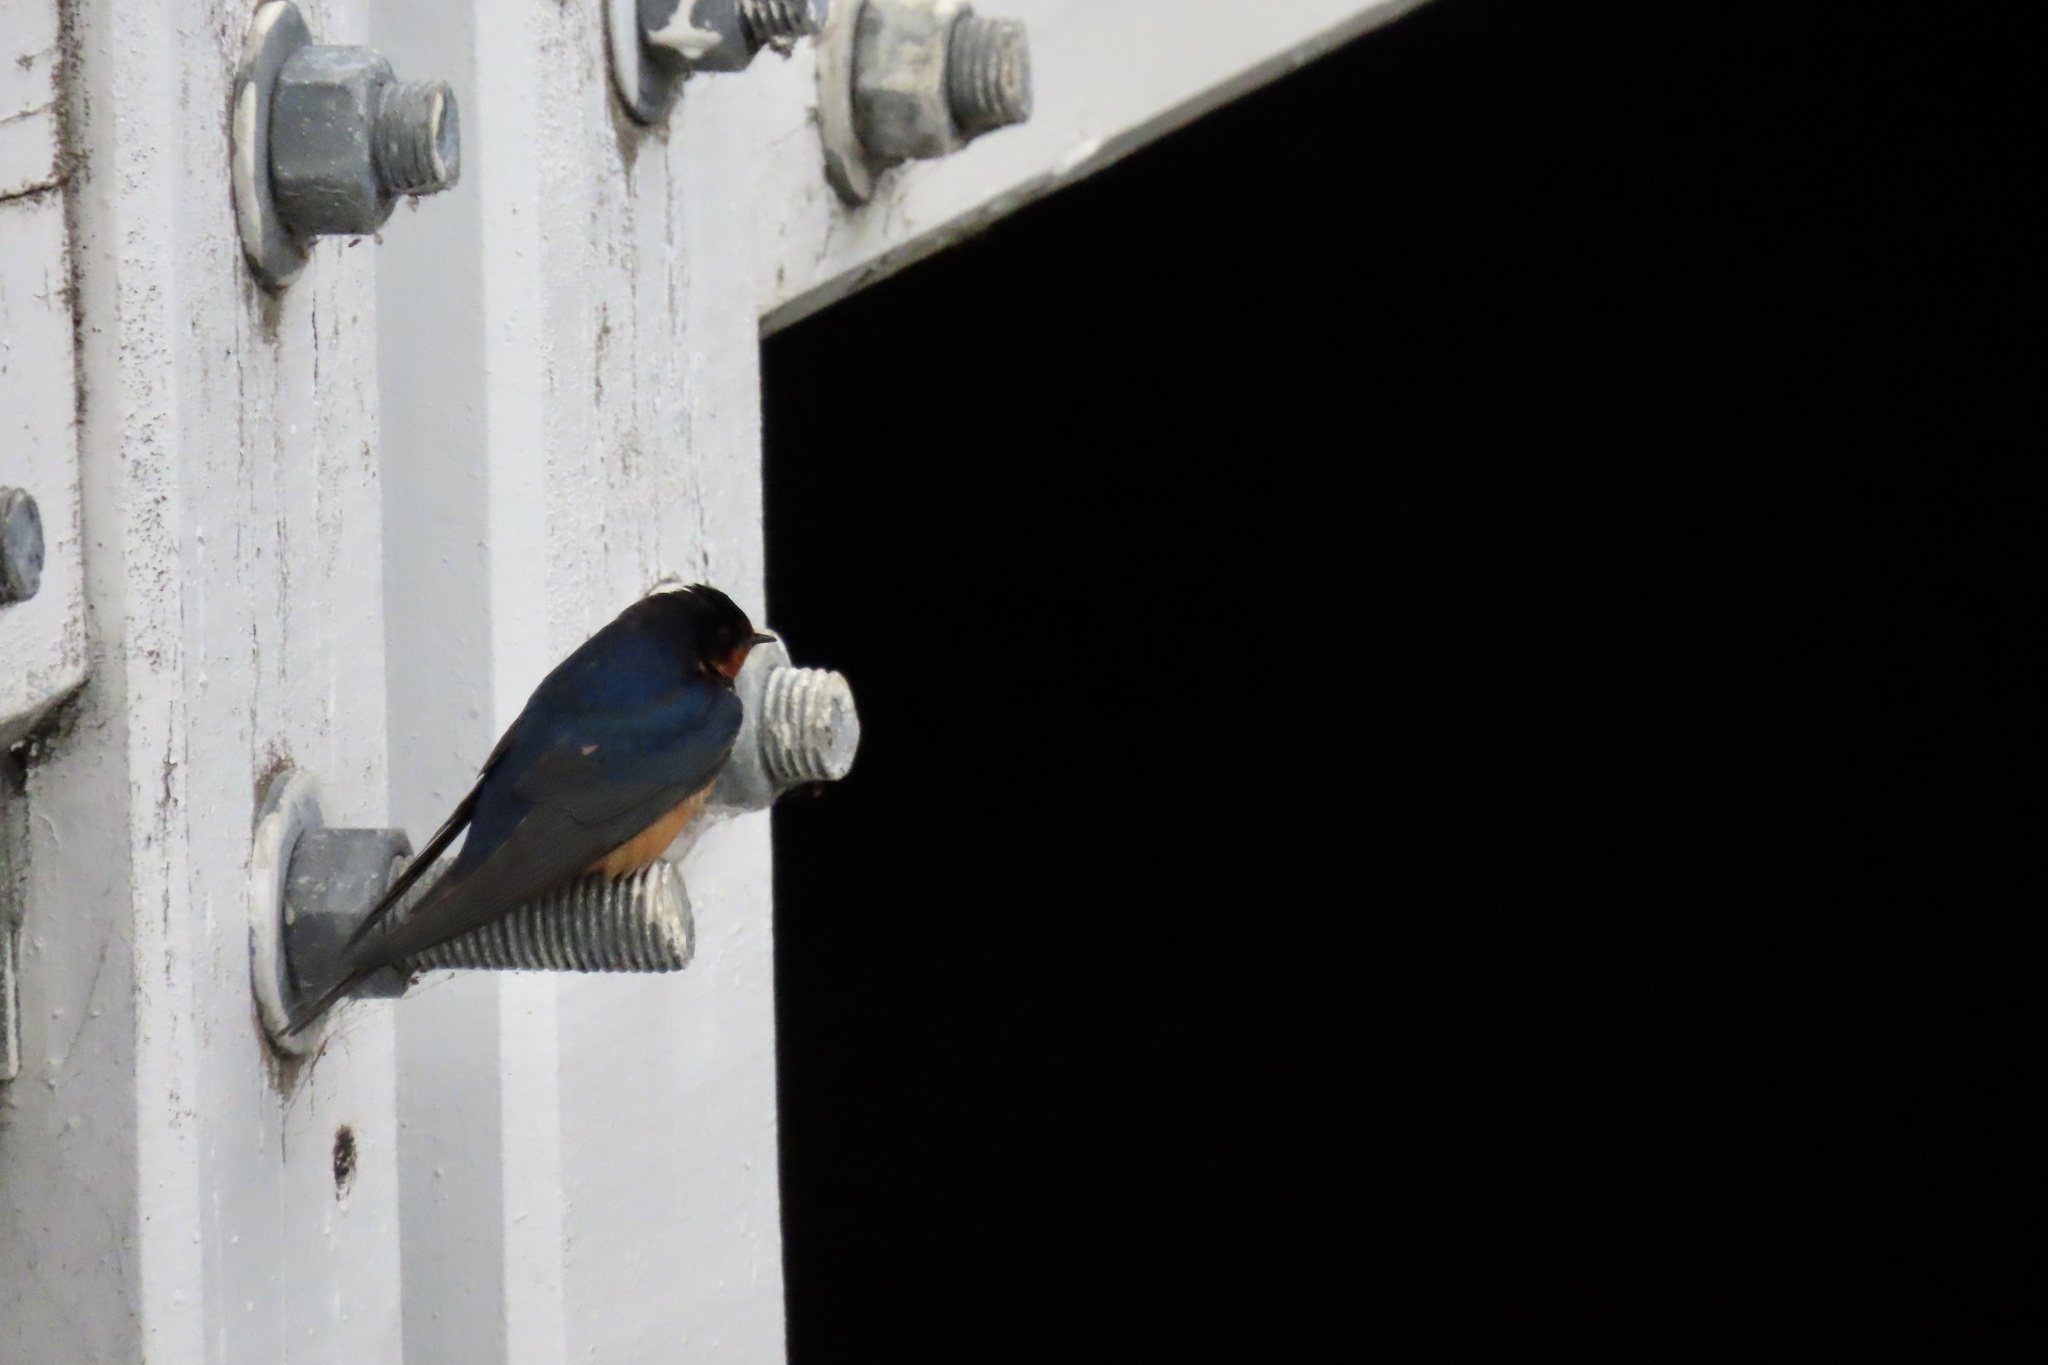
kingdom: Animalia
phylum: Chordata
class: Aves
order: Passeriformes
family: Hirundinidae
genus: Hirundo
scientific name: Hirundo rustica
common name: Barn swallow
